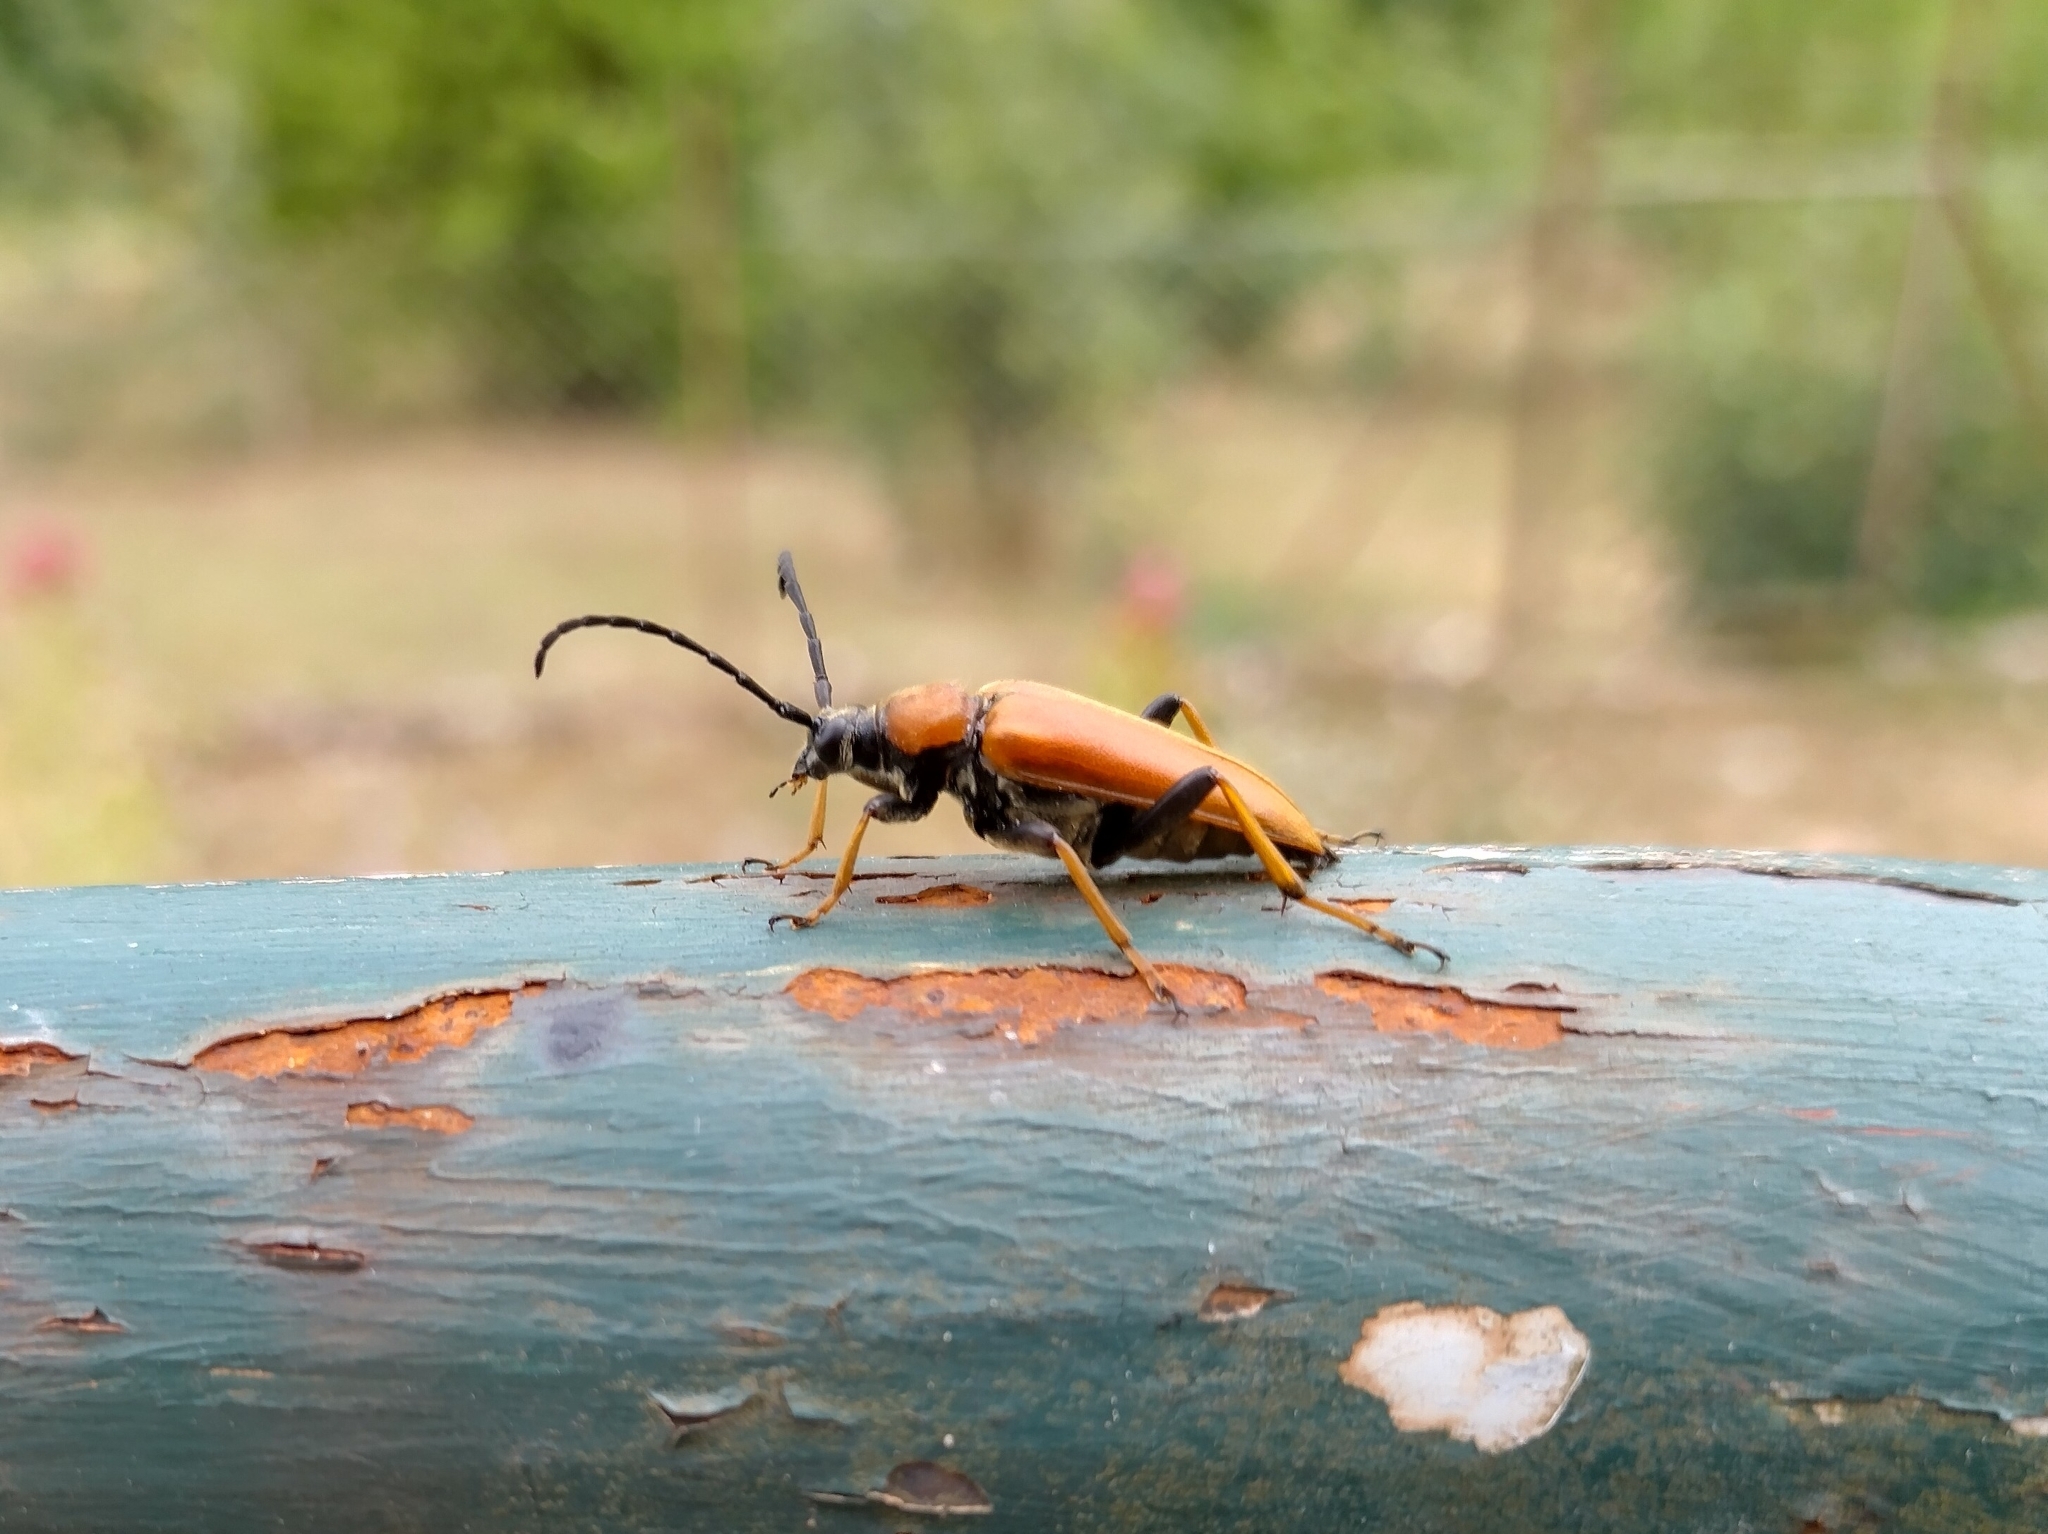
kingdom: Animalia
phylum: Arthropoda
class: Insecta
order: Coleoptera
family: Cerambycidae
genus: Stictoleptura
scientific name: Stictoleptura rubra
